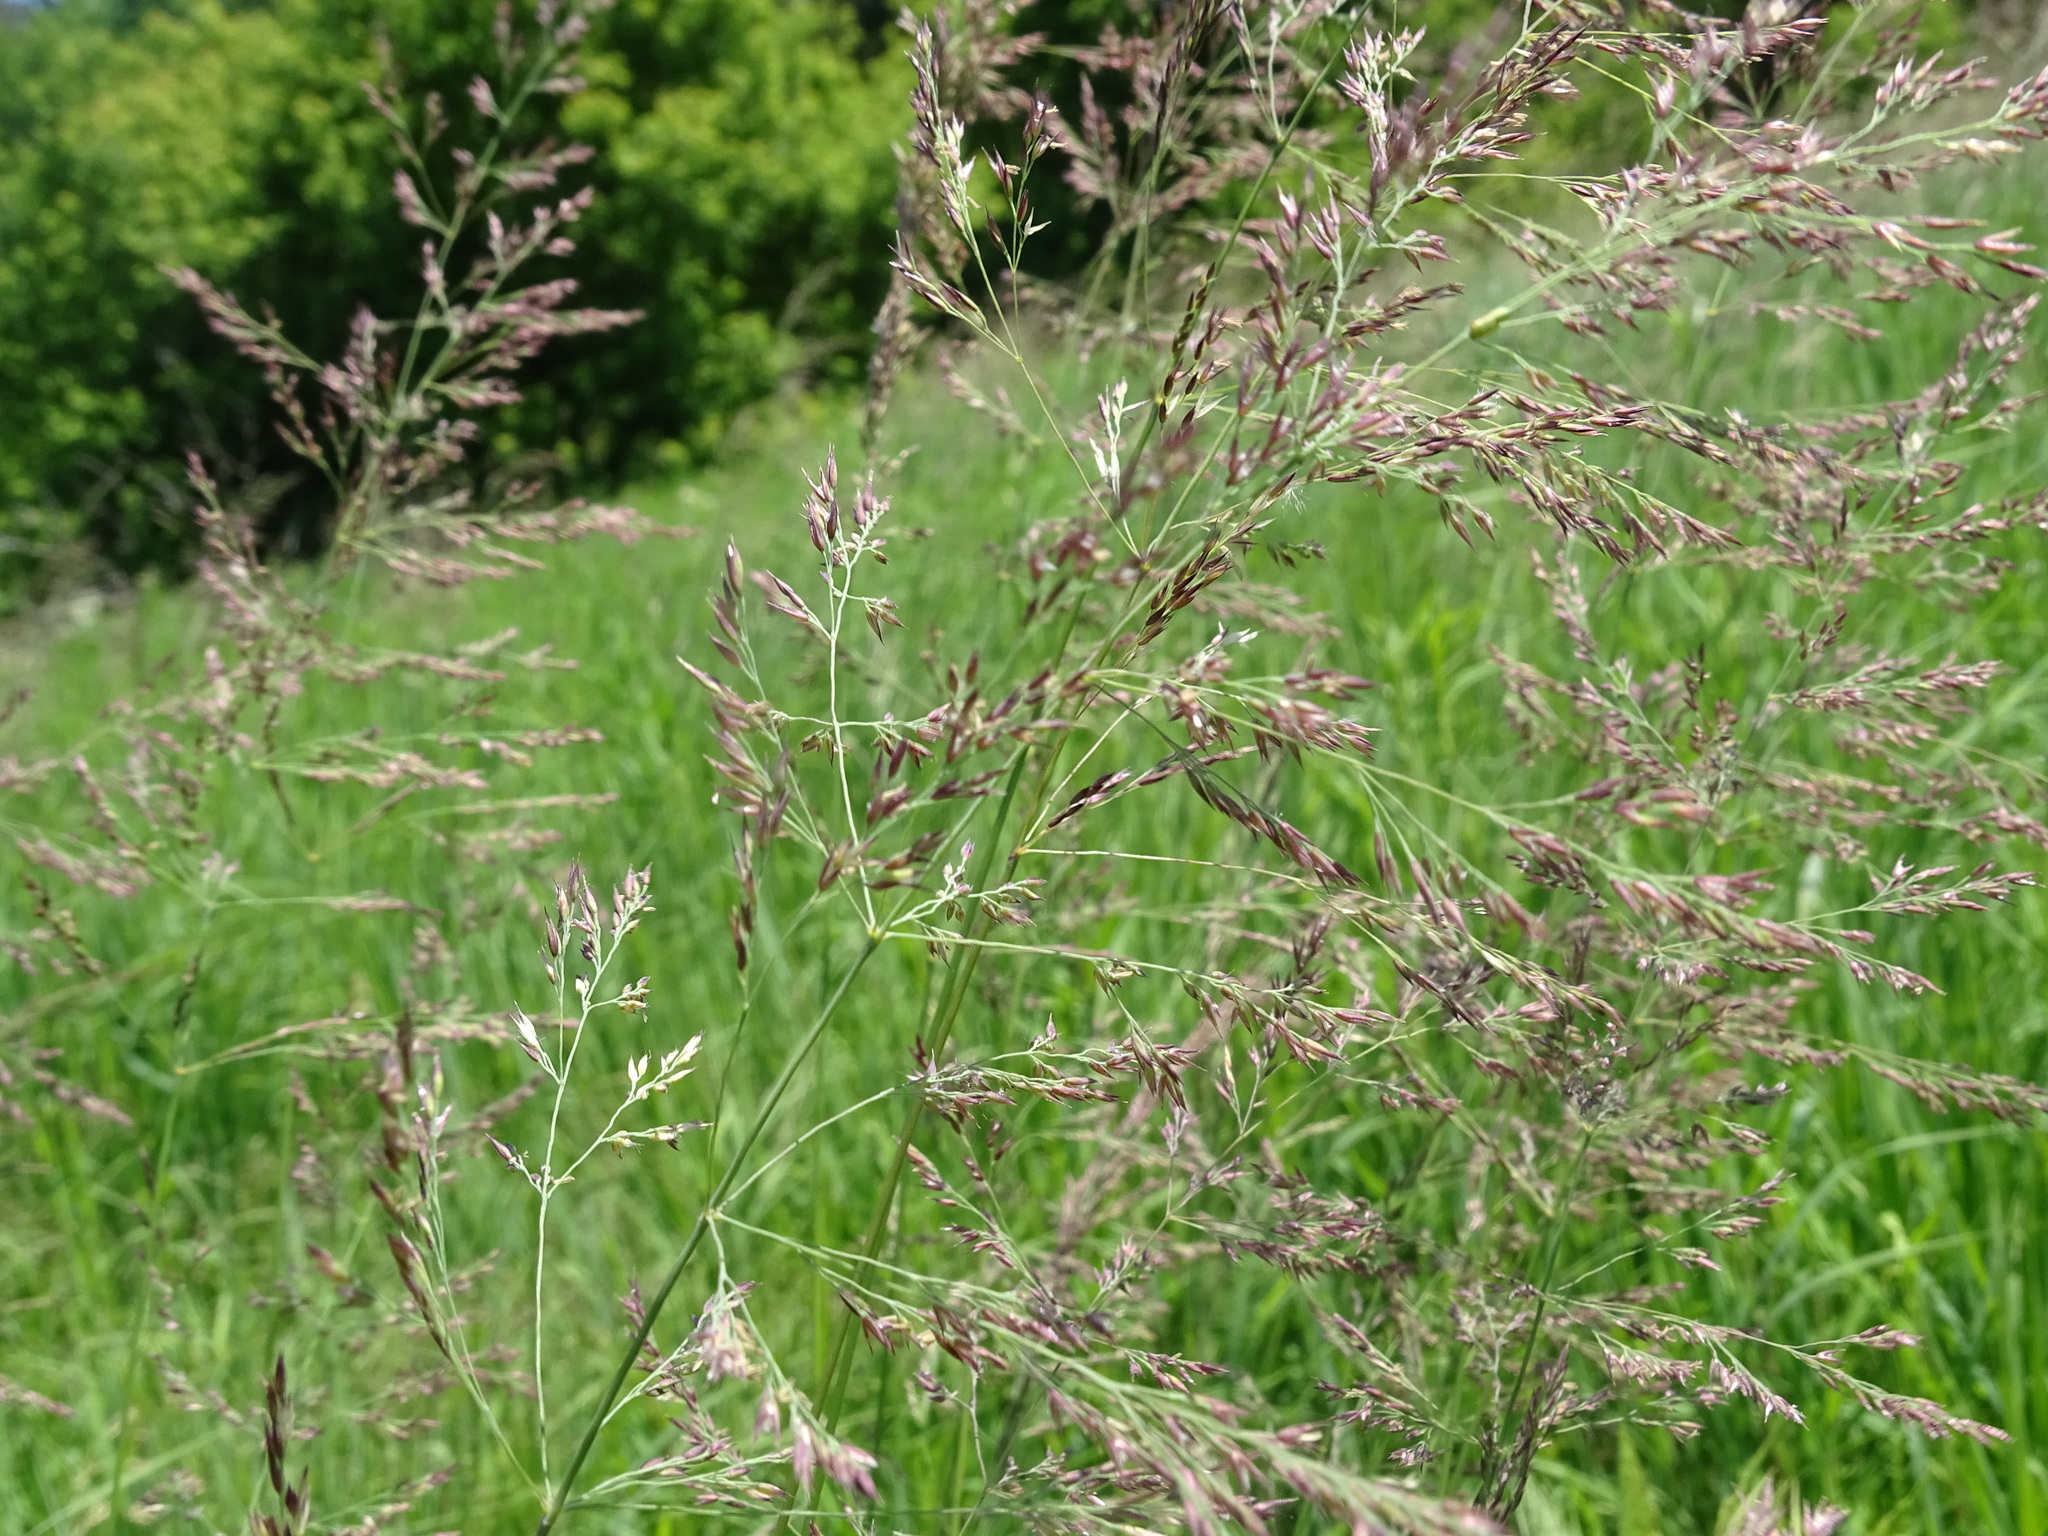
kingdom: Plantae
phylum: Tracheophyta
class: Liliopsida
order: Poales
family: Poaceae
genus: Calamagrostis
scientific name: Calamagrostis canadensis
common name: Canada bluejoint
